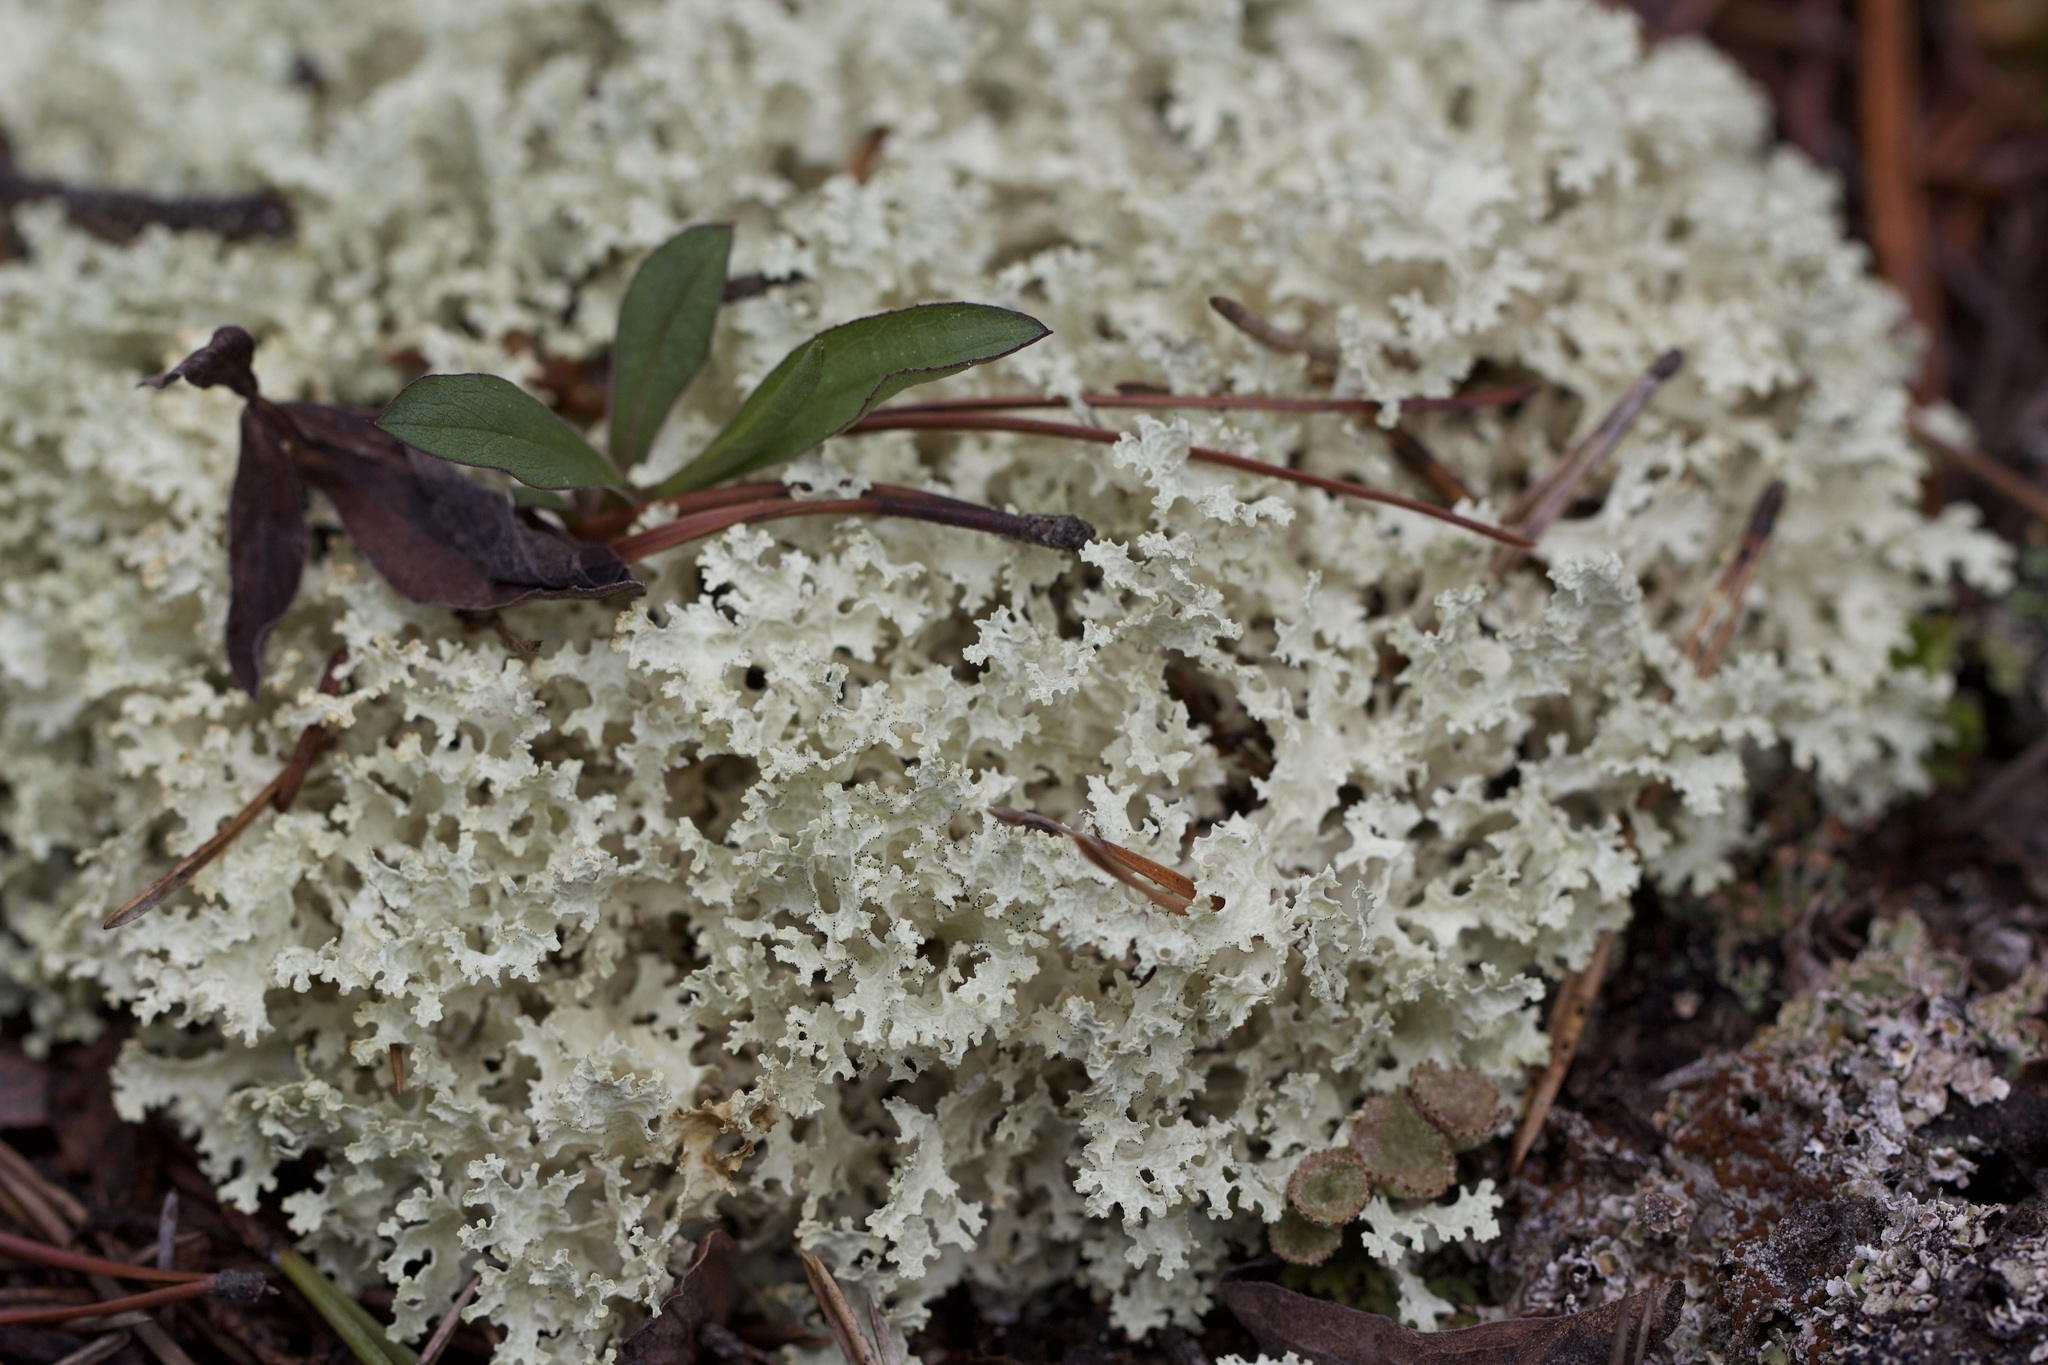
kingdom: Fungi
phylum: Ascomycota
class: Lecanoromycetes
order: Lecanorales
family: Parmeliaceae
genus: Nephromopsis
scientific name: Nephromopsis nivalis
